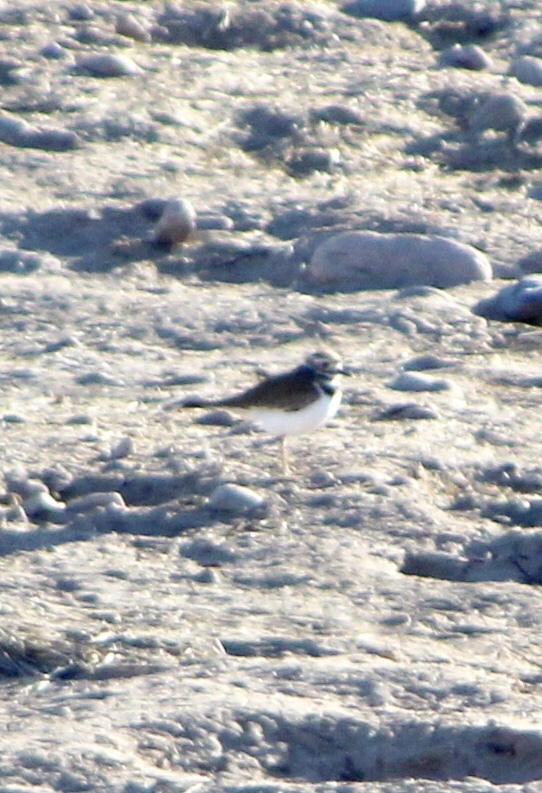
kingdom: Animalia
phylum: Chordata
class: Aves
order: Charadriiformes
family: Charadriidae
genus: Charadrius
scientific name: Charadrius vociferus
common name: Killdeer
